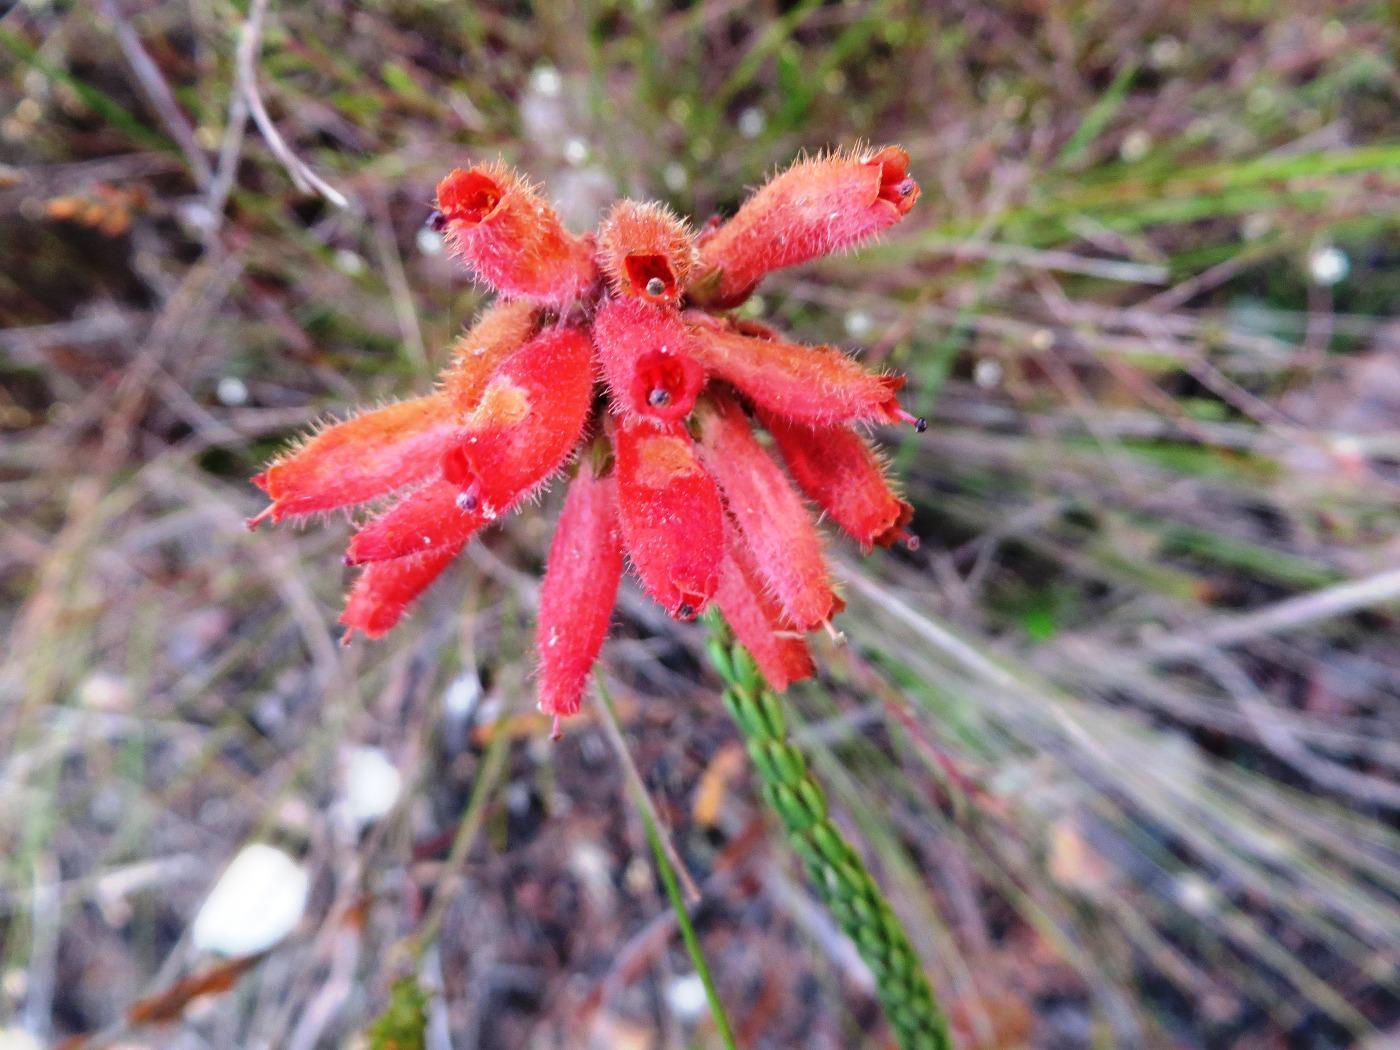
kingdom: Plantae
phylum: Tracheophyta
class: Magnoliopsida
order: Ericales
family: Ericaceae
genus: Erica
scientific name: Erica cerinthoides
